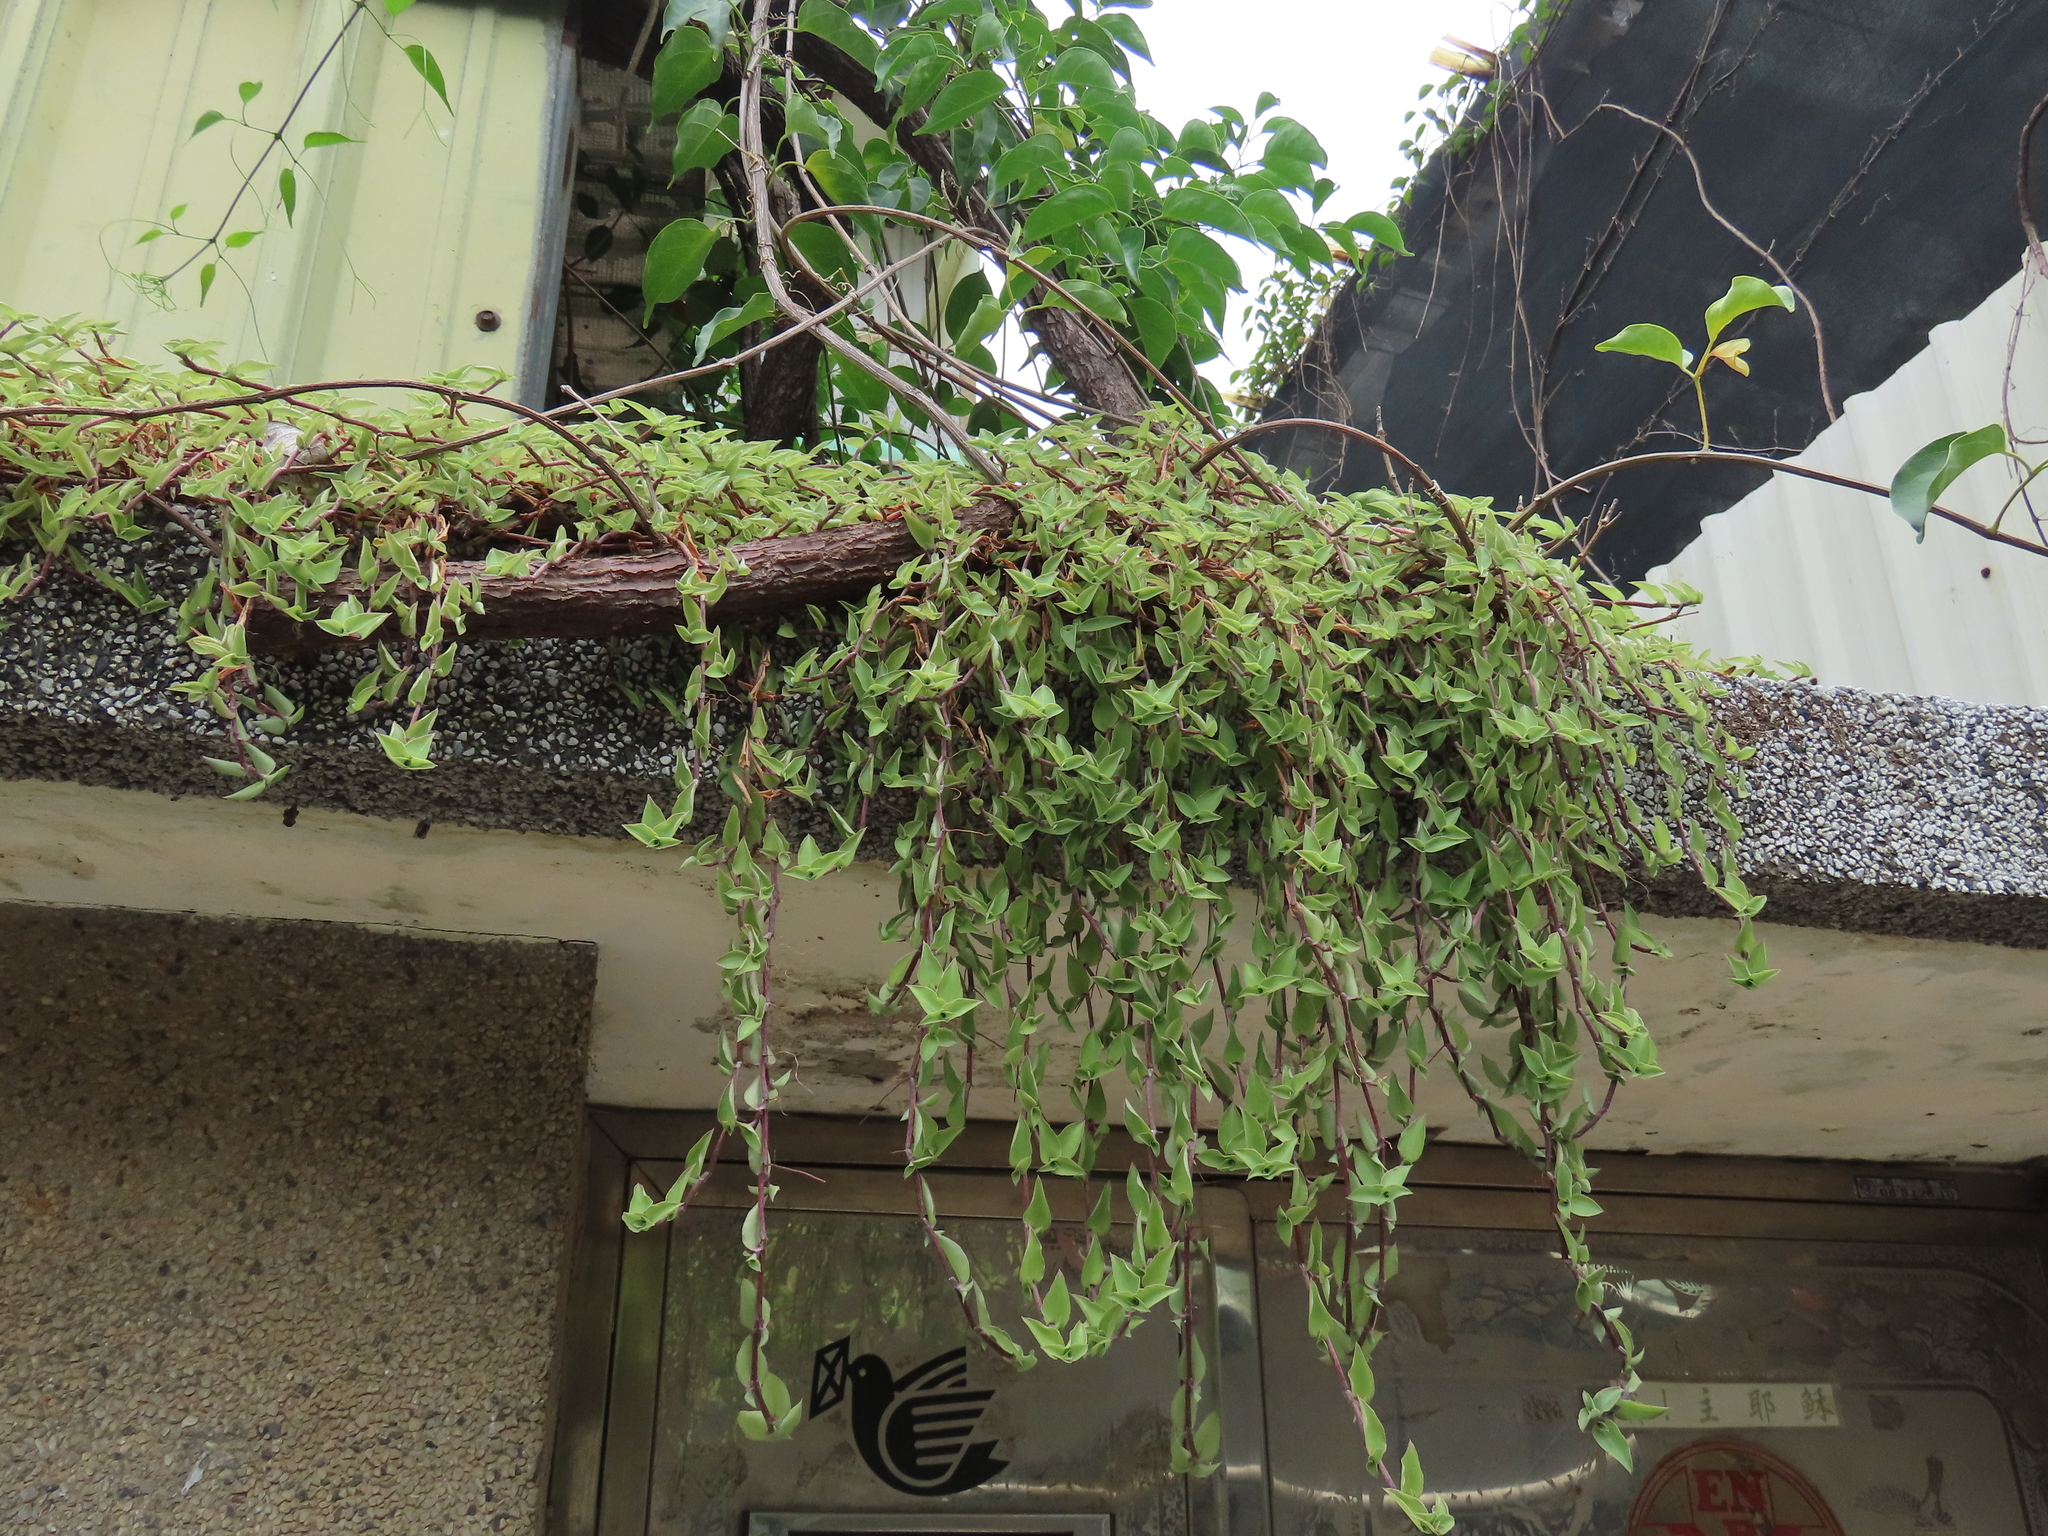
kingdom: Plantae
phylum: Tracheophyta
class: Liliopsida
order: Commelinales
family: Commelinaceae
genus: Callisia
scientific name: Callisia repens
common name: Creeping inchplant
